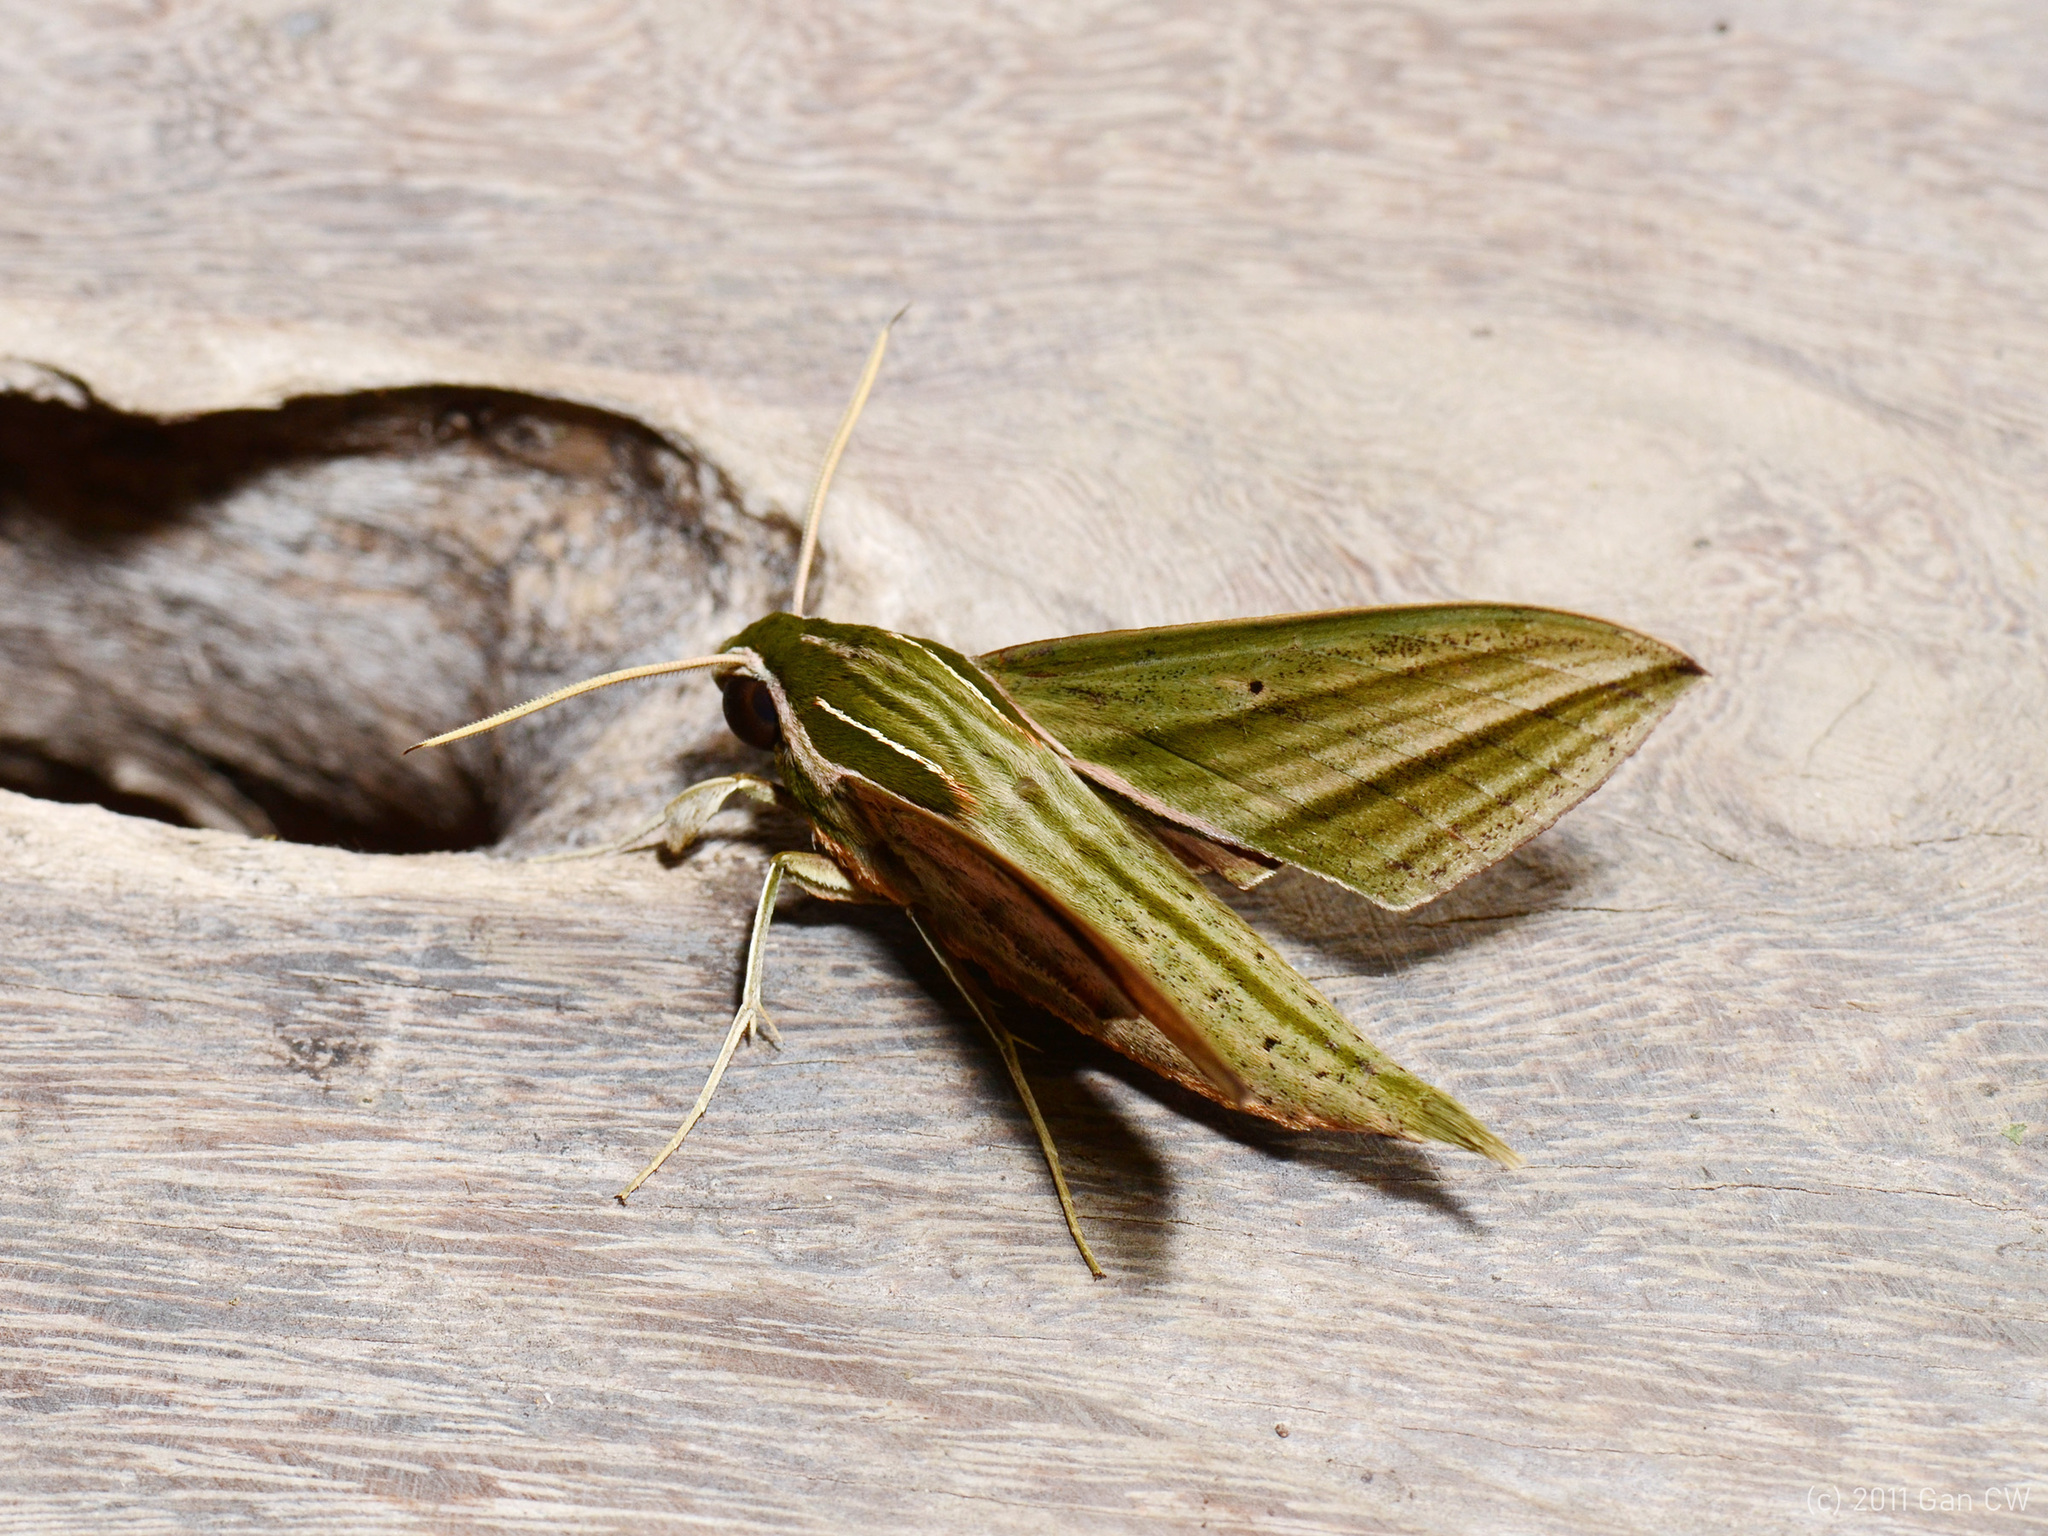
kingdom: Animalia
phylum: Arthropoda
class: Insecta
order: Lepidoptera
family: Sphingidae
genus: Theretra
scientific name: Theretra manilae
